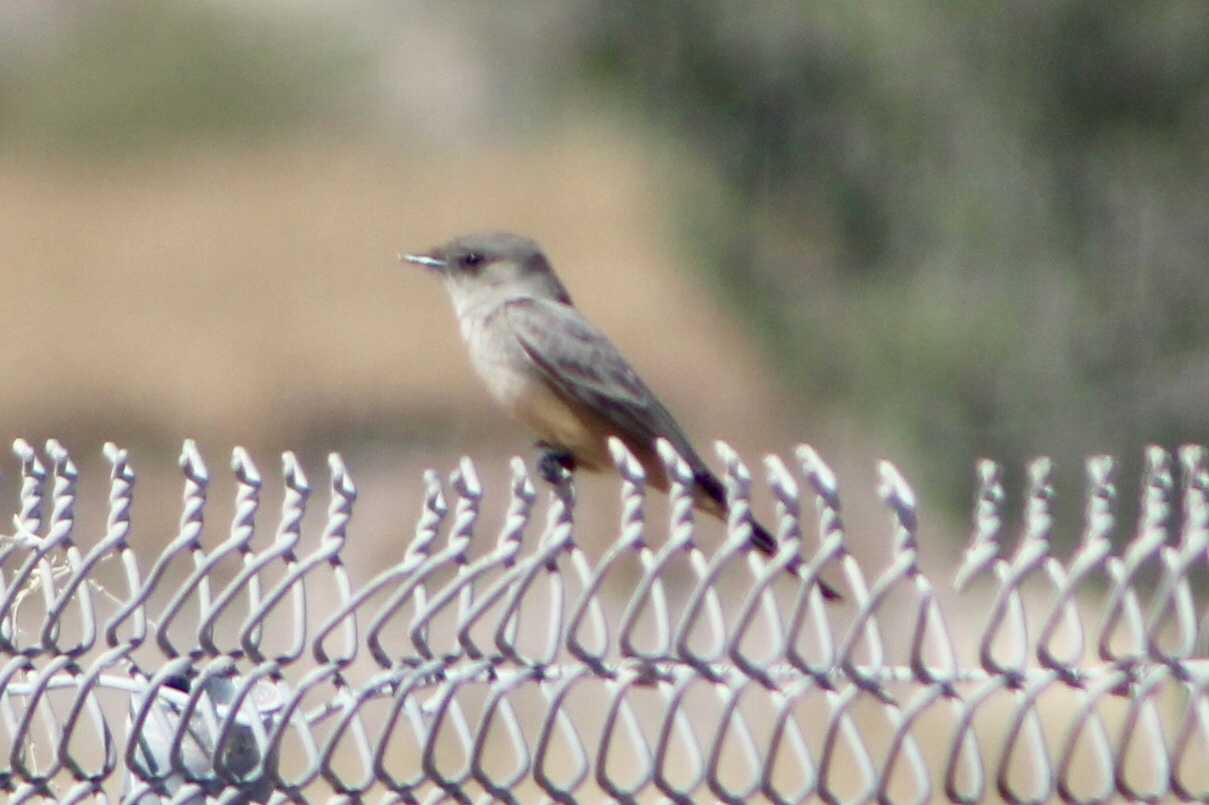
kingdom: Animalia
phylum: Chordata
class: Aves
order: Passeriformes
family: Tyrannidae
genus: Sayornis
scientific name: Sayornis saya
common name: Say's phoebe
